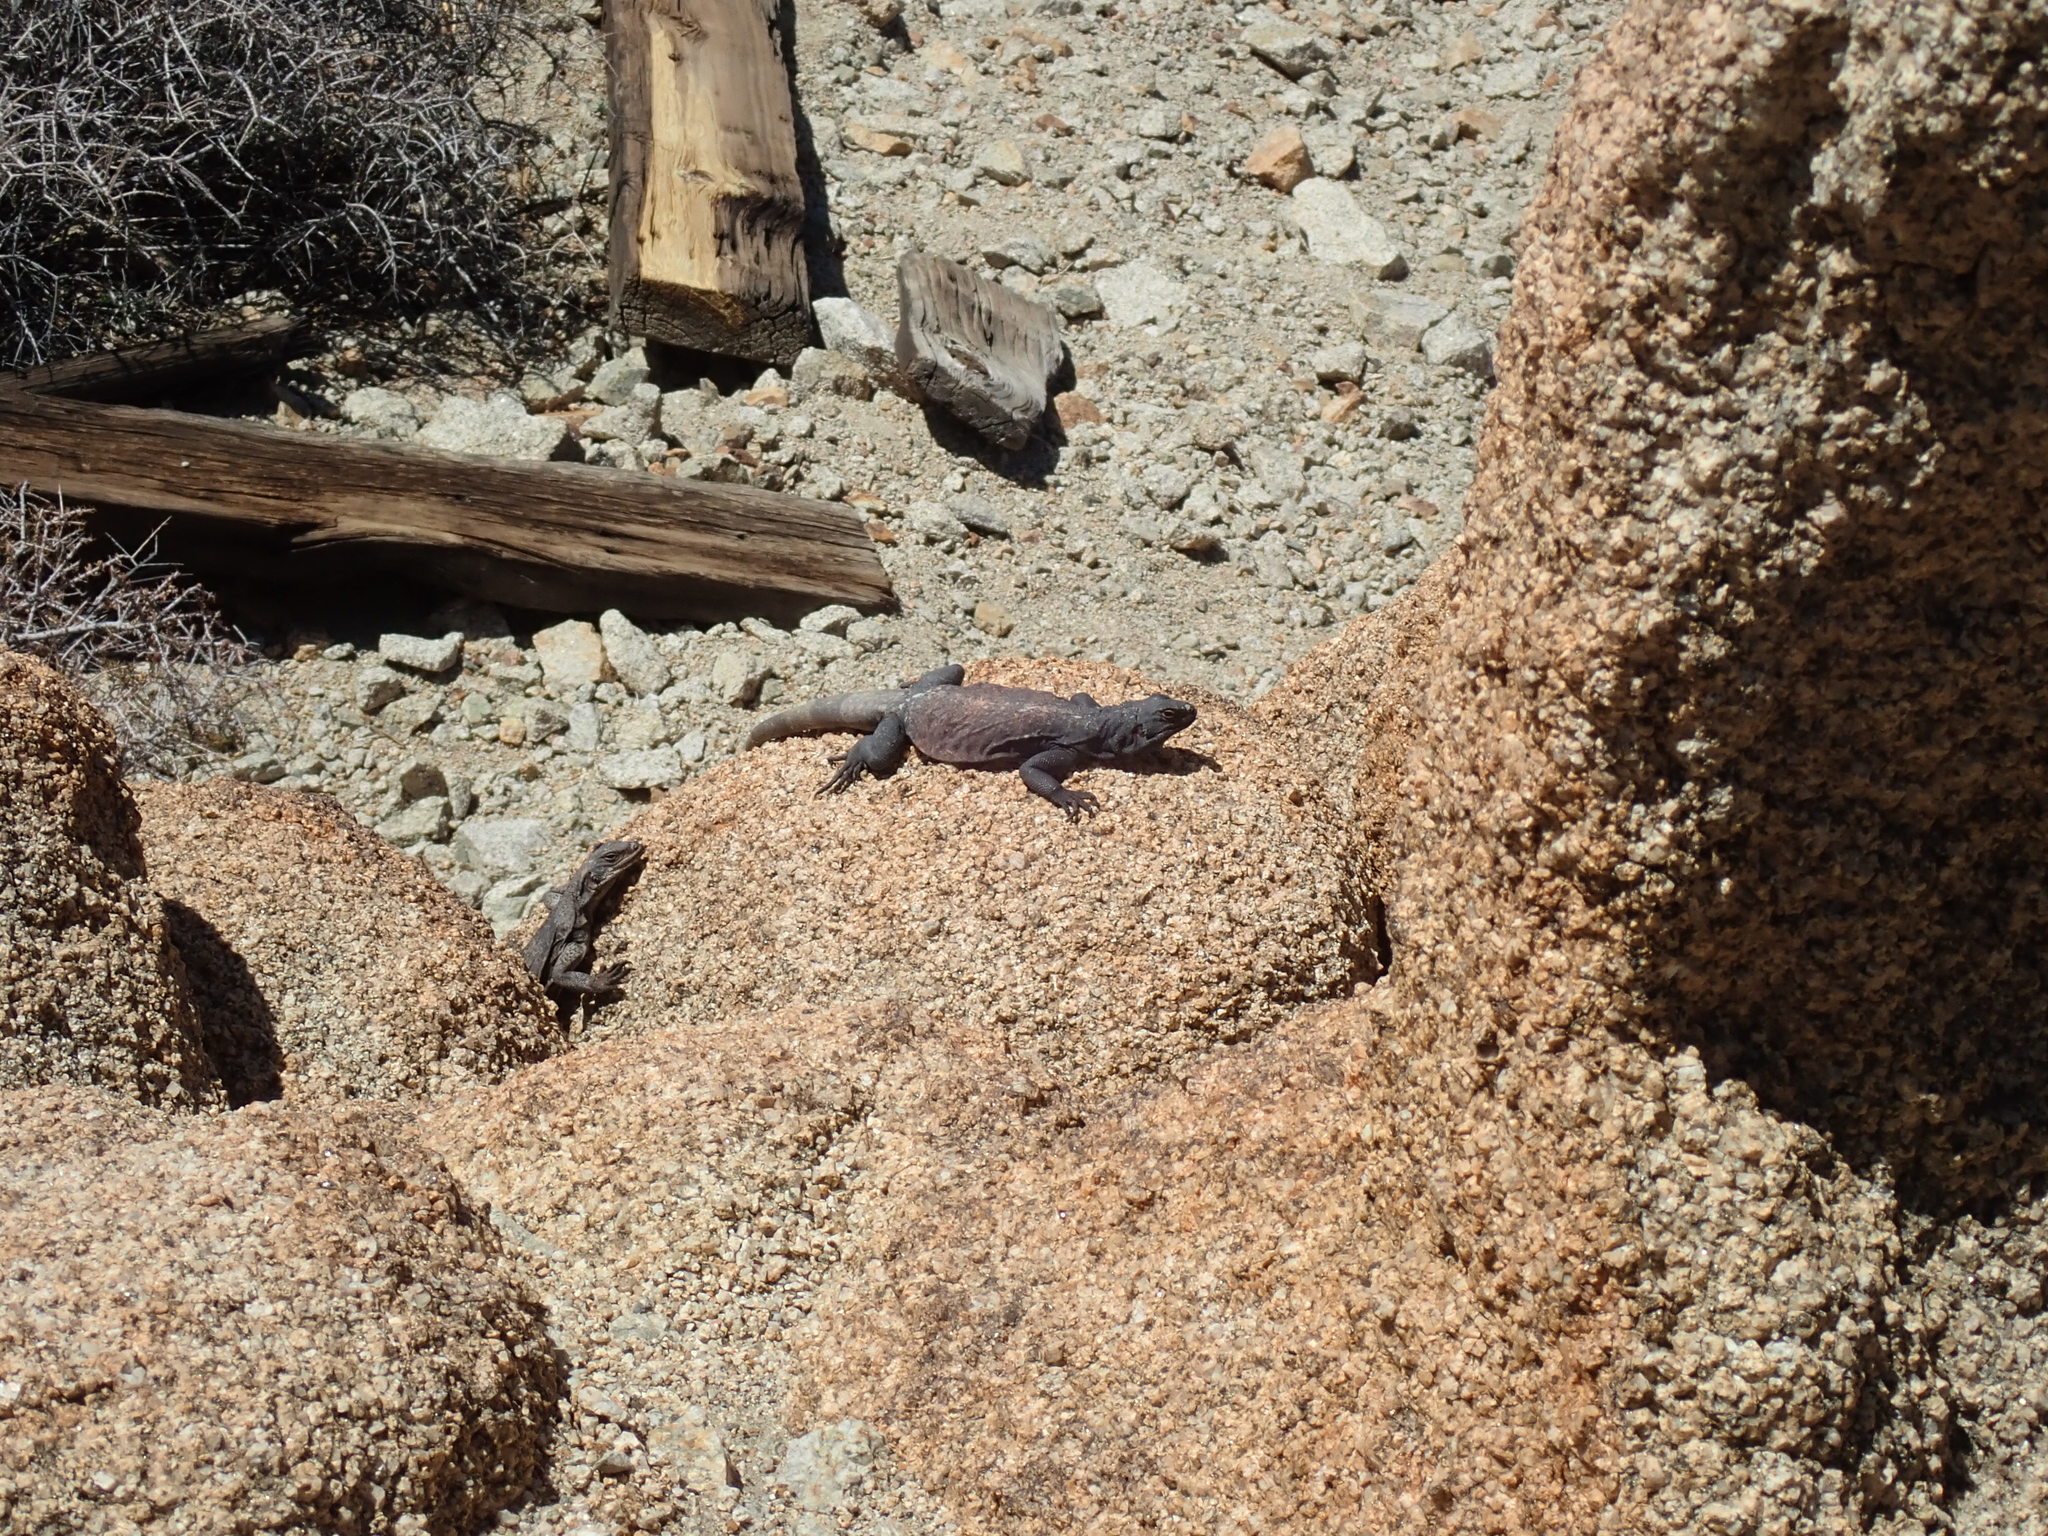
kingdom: Animalia
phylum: Chordata
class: Squamata
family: Iguanidae
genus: Sauromalus
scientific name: Sauromalus ater
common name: Northern chuckwalla
